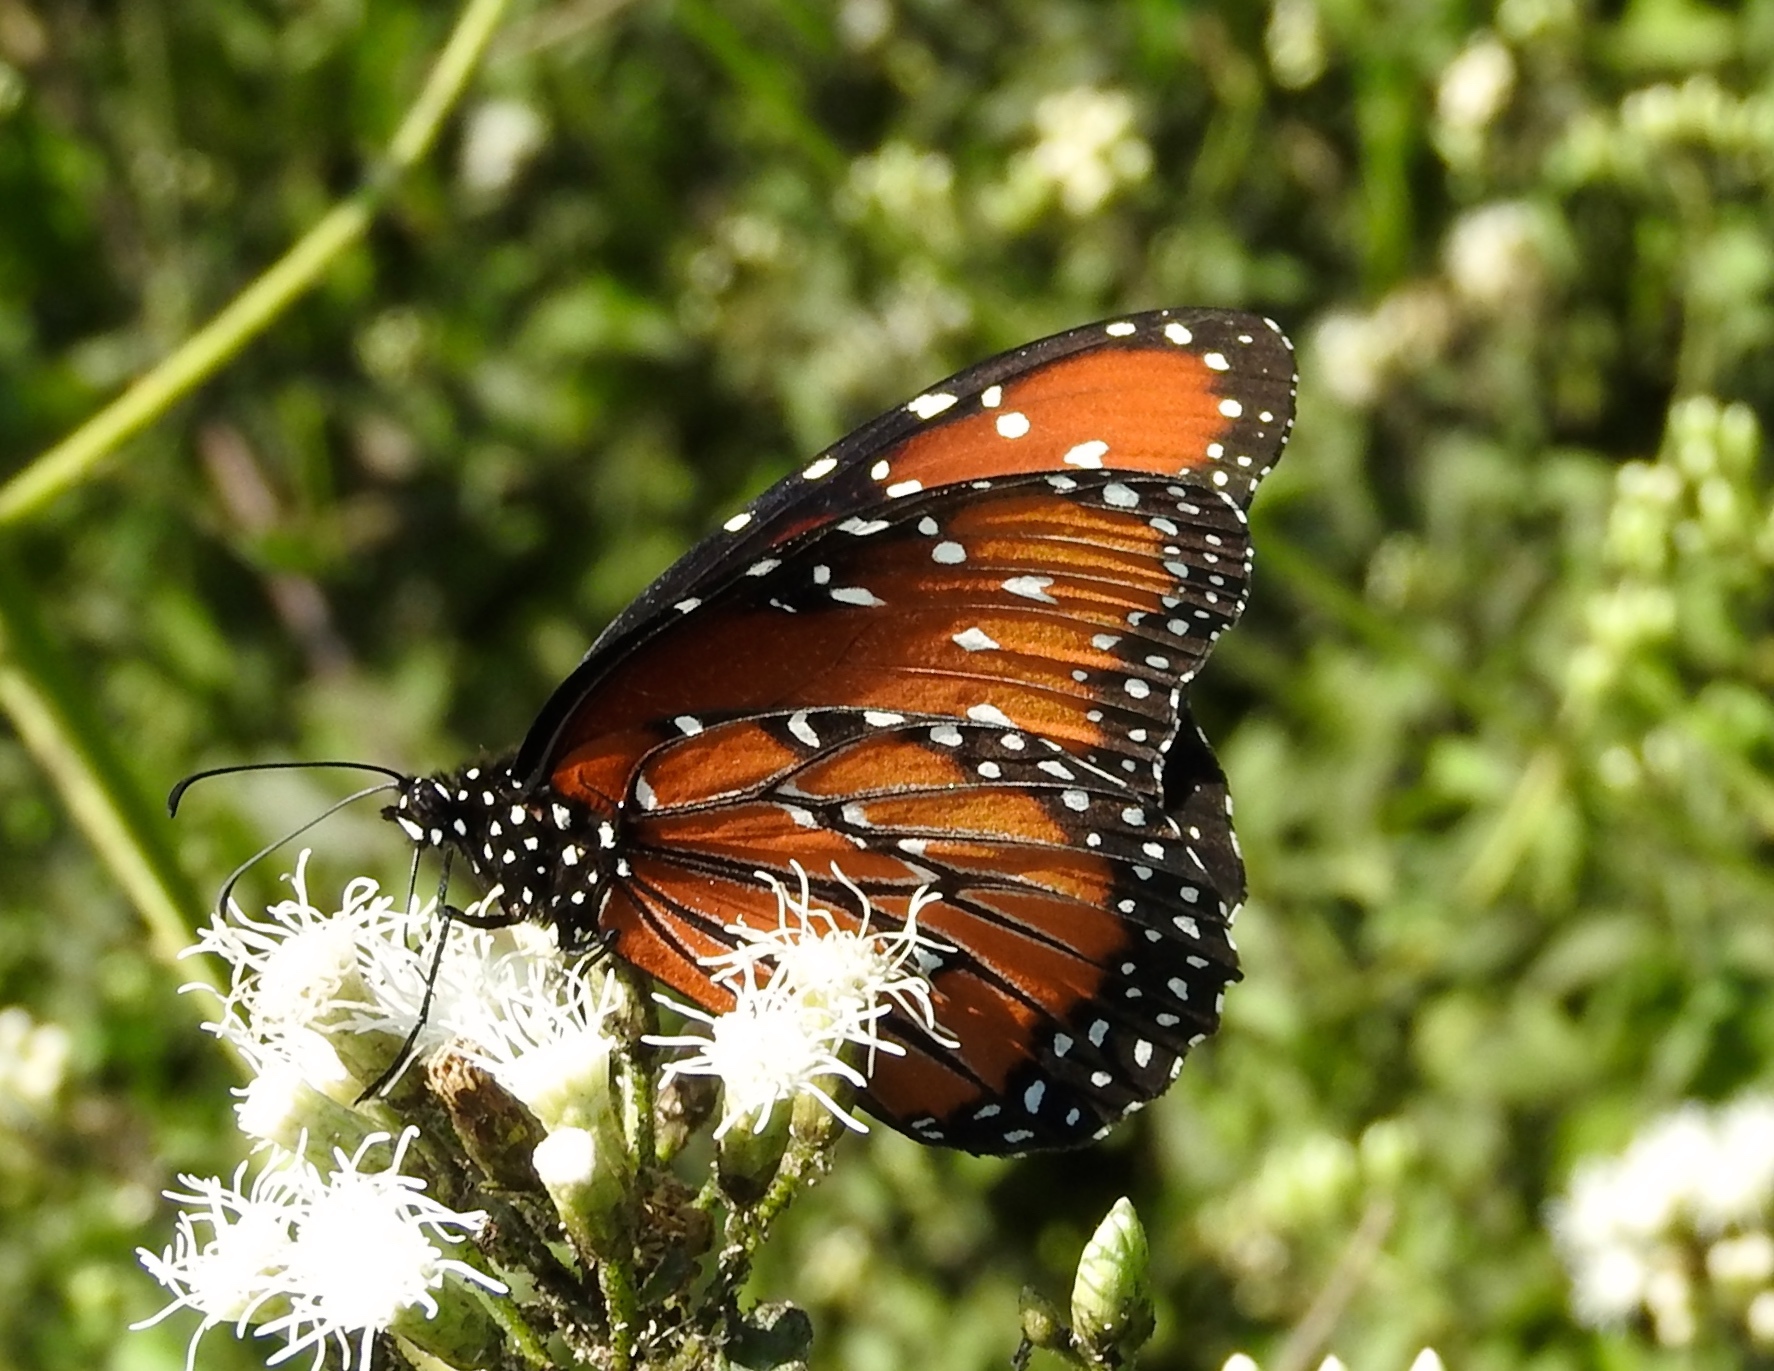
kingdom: Animalia
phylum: Arthropoda
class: Insecta
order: Lepidoptera
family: Nymphalidae
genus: Danaus
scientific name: Danaus gilippus
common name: Queen
